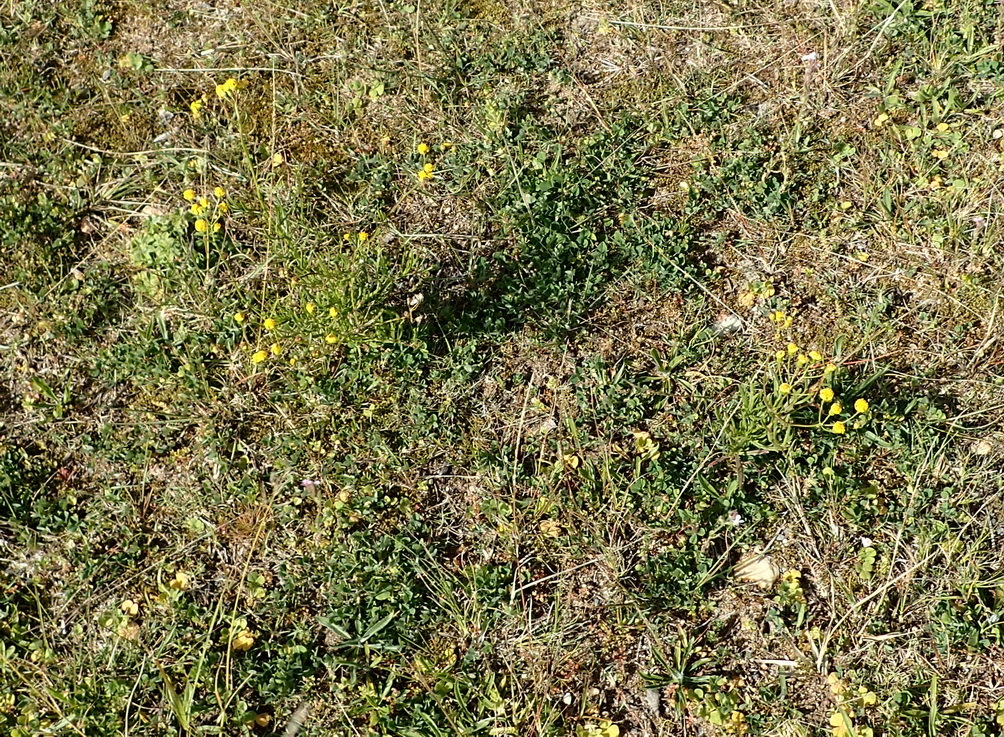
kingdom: Plantae
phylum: Tracheophyta
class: Magnoliopsida
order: Asterales
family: Asteraceae
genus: Senecio
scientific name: Senecio burchellii
